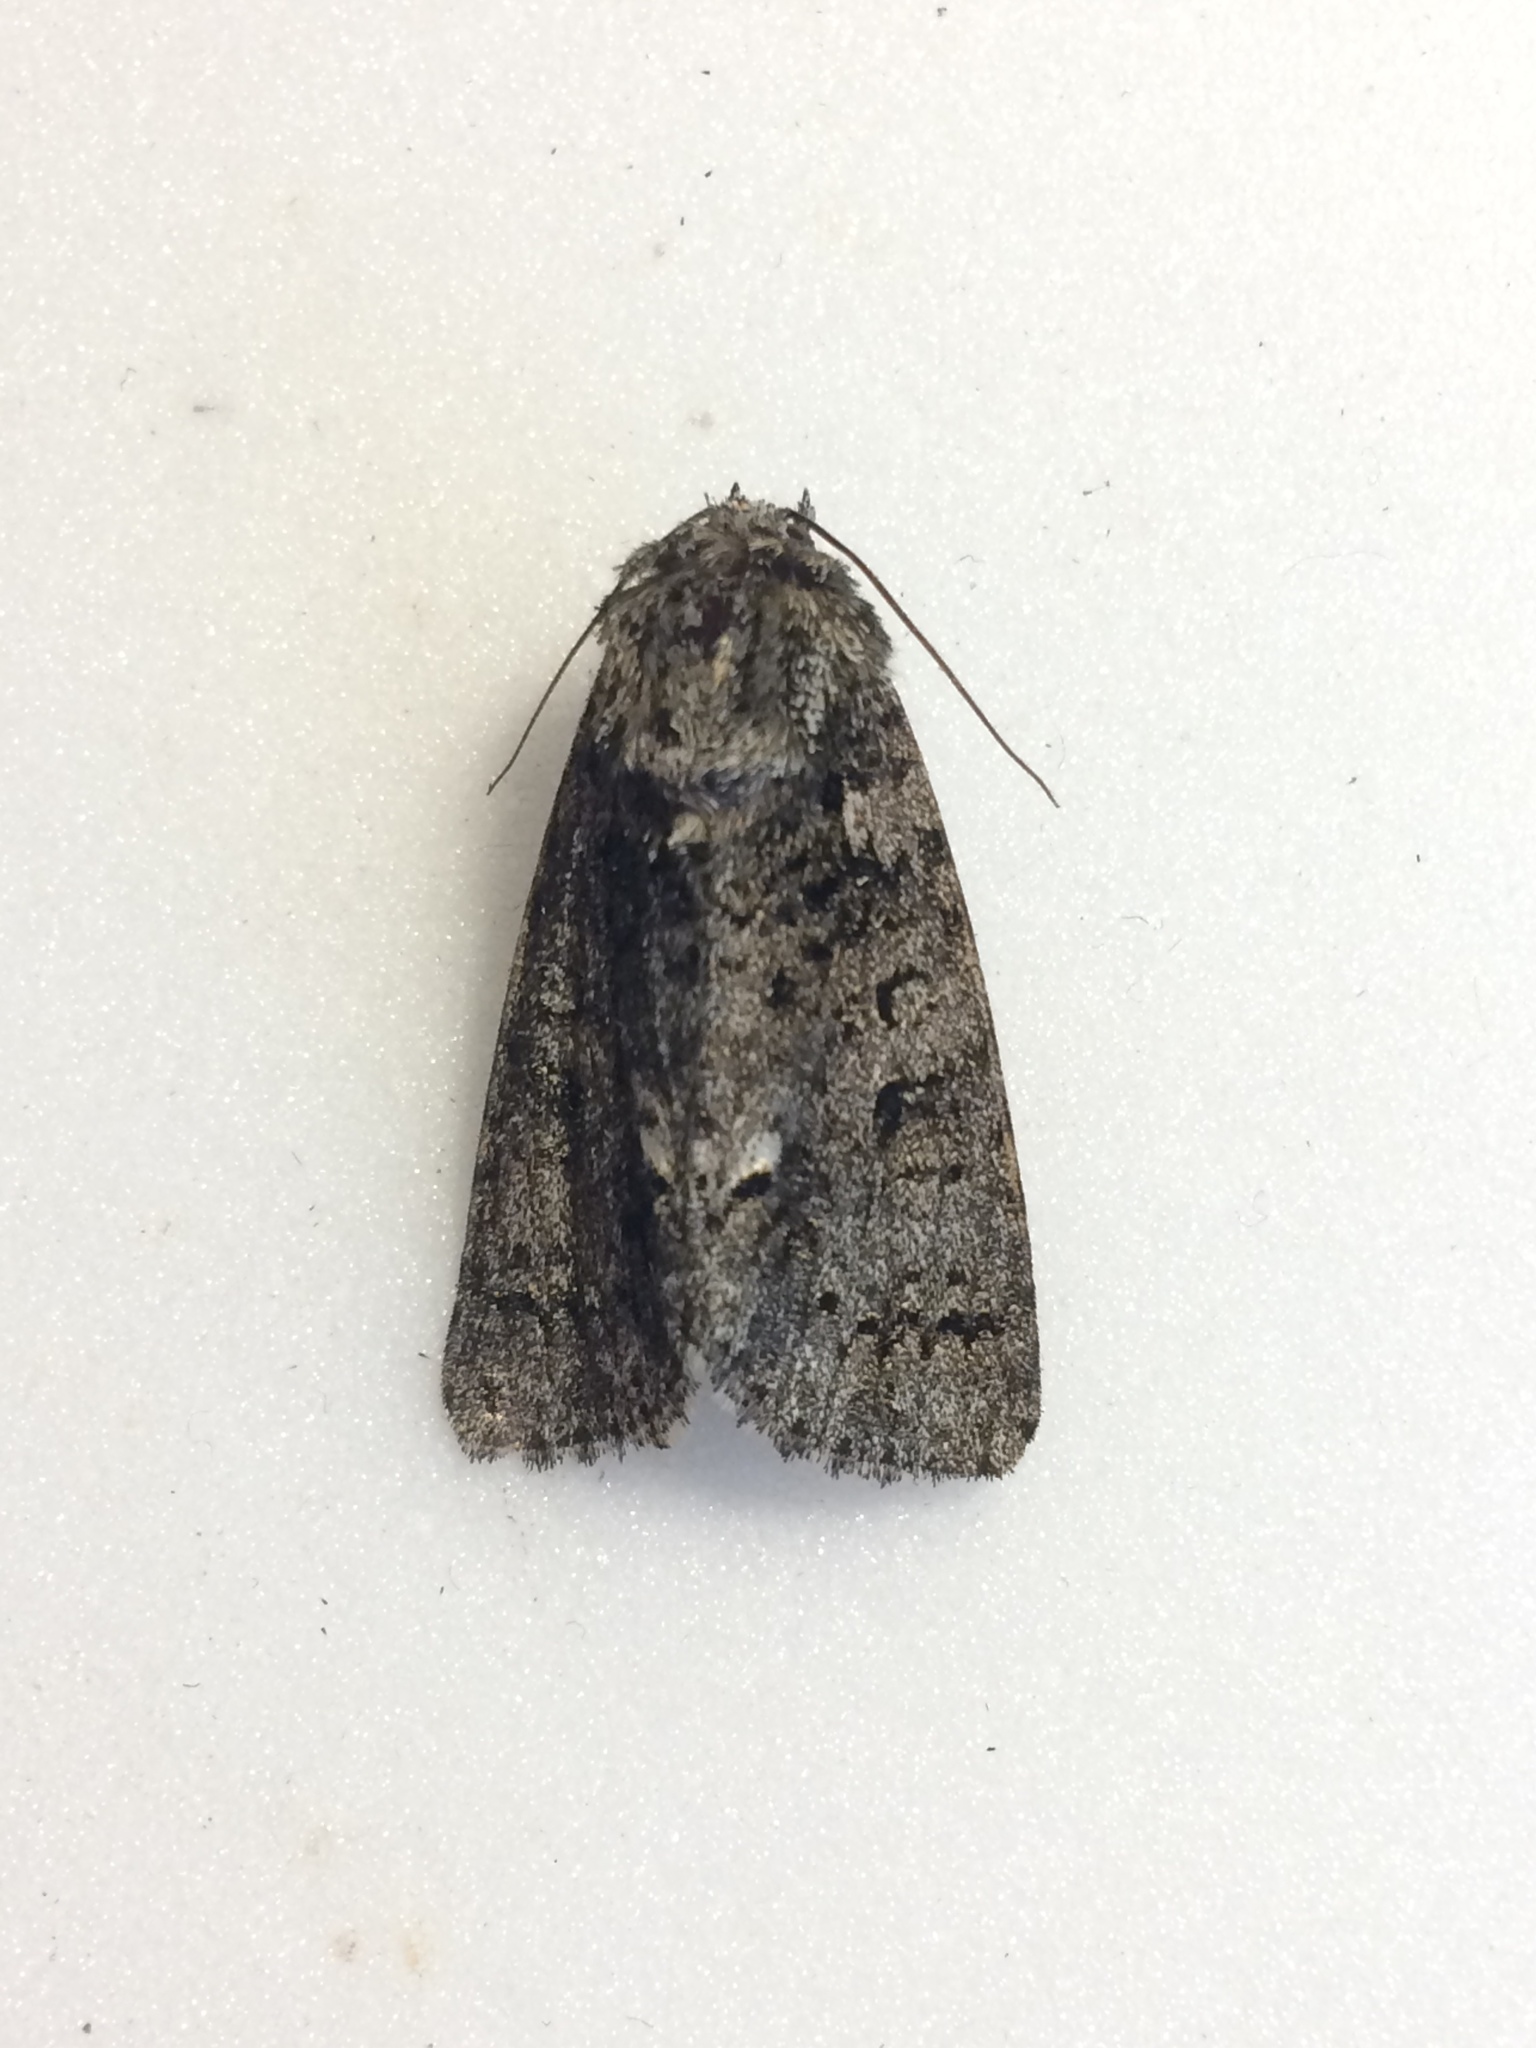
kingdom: Animalia
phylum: Arthropoda
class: Insecta
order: Lepidoptera
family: Noctuidae
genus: Acronicta
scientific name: Acronicta rumicis
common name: Knot grass
